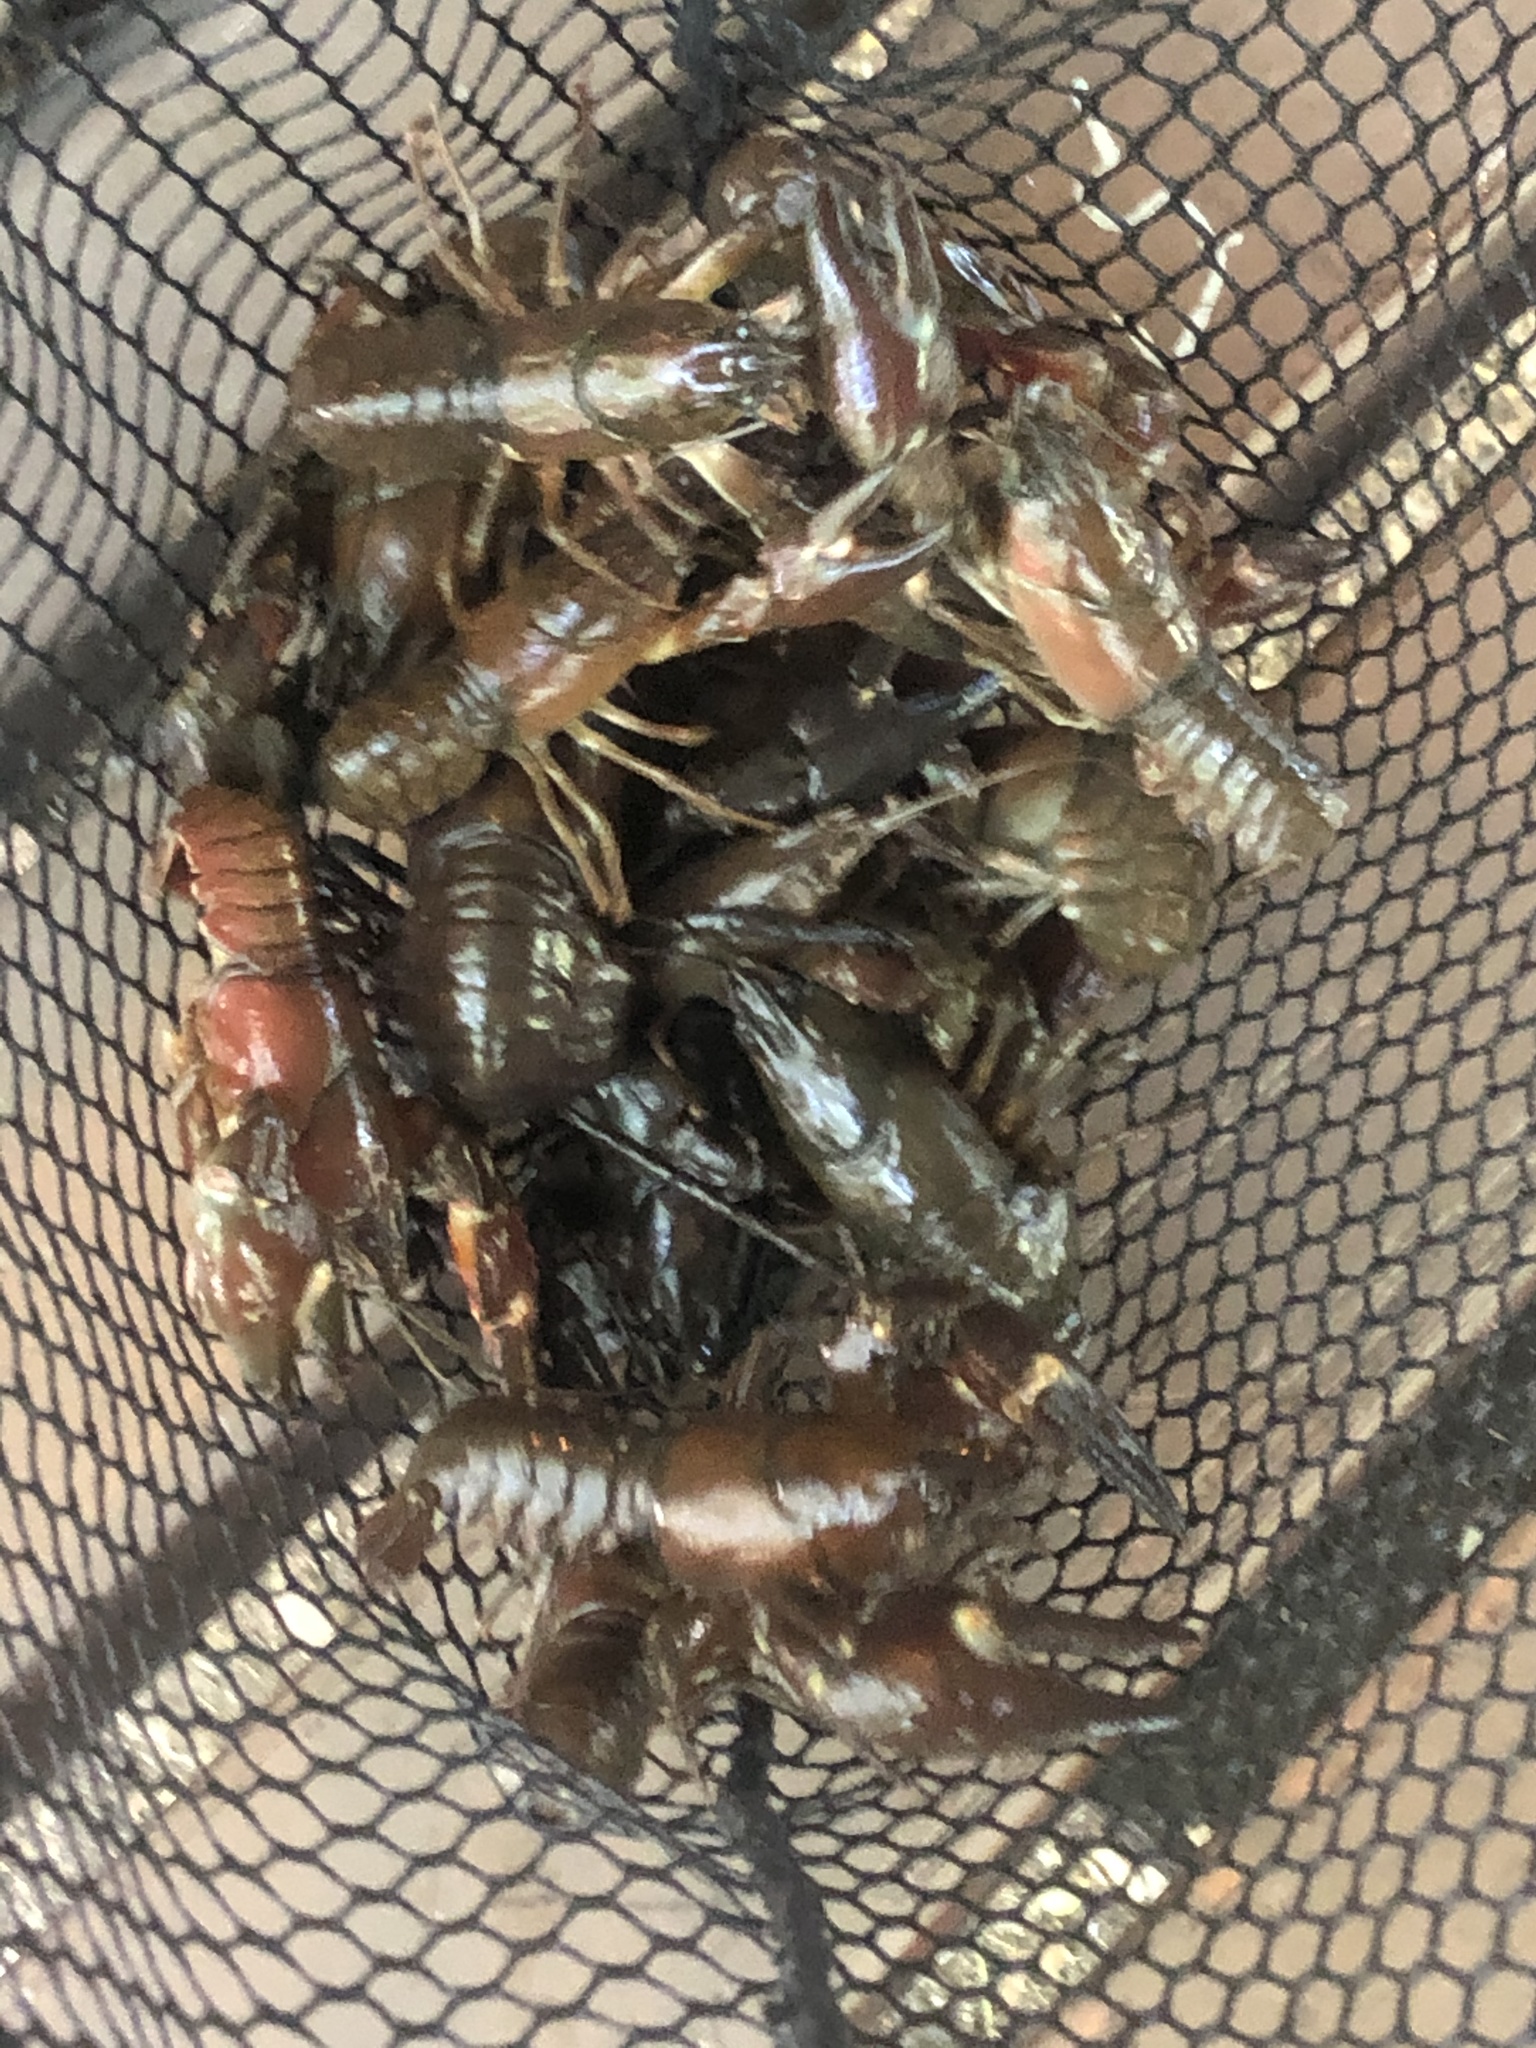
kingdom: Animalia
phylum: Arthropoda
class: Malacostraca
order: Decapoda
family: Astacidae
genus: Pacifastacus
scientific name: Pacifastacus leniusculus
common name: Signal crayfish
